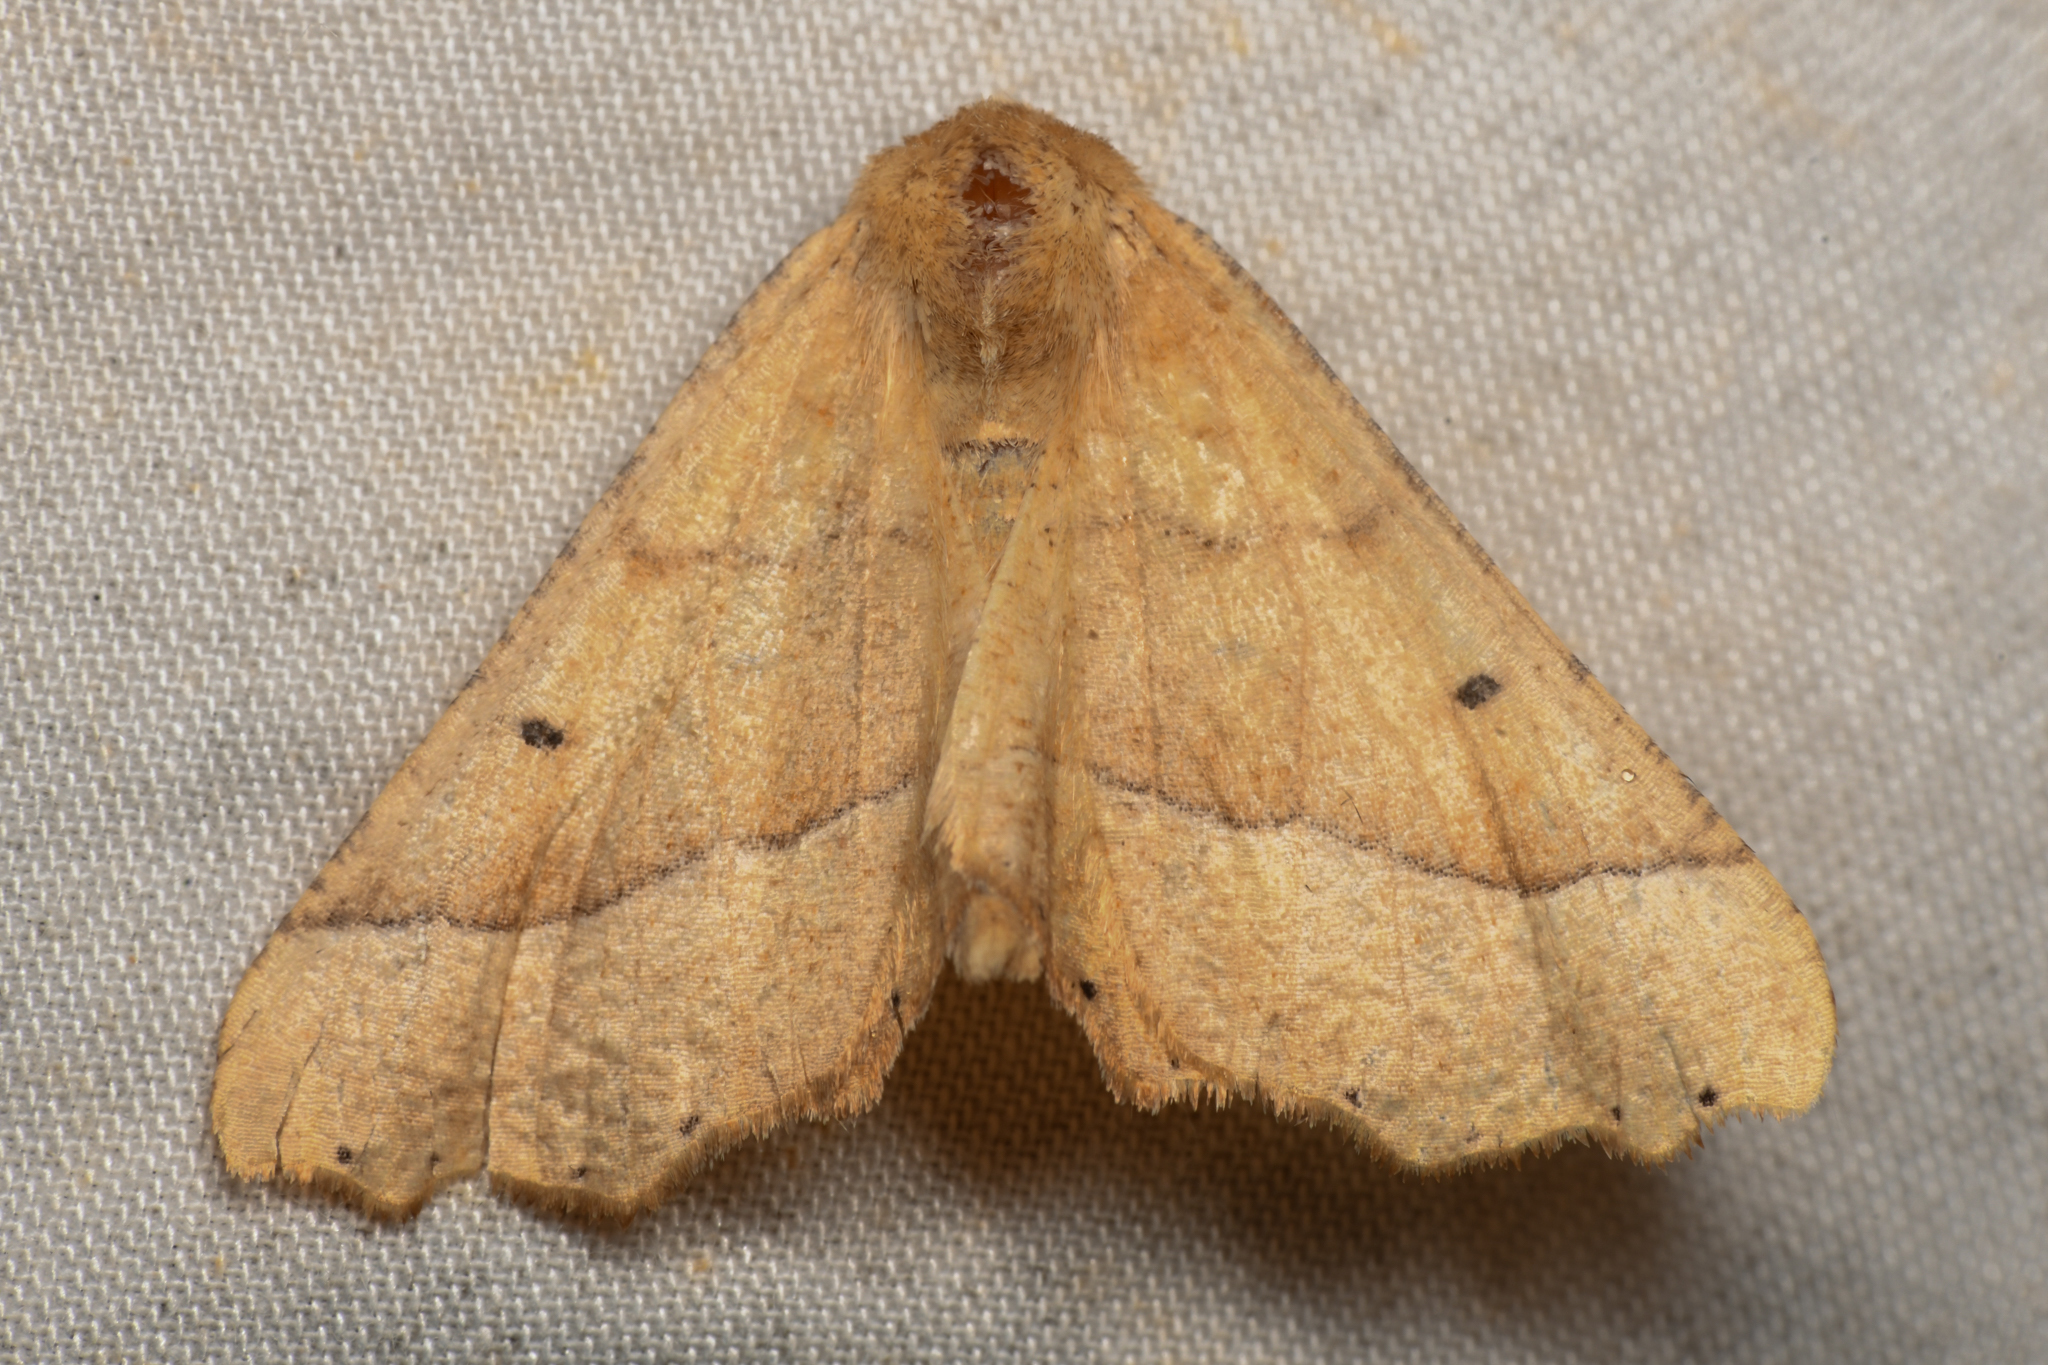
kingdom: Animalia
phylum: Arthropoda
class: Insecta
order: Lepidoptera
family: Geometridae
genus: Pero
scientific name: Pero radiosaria
